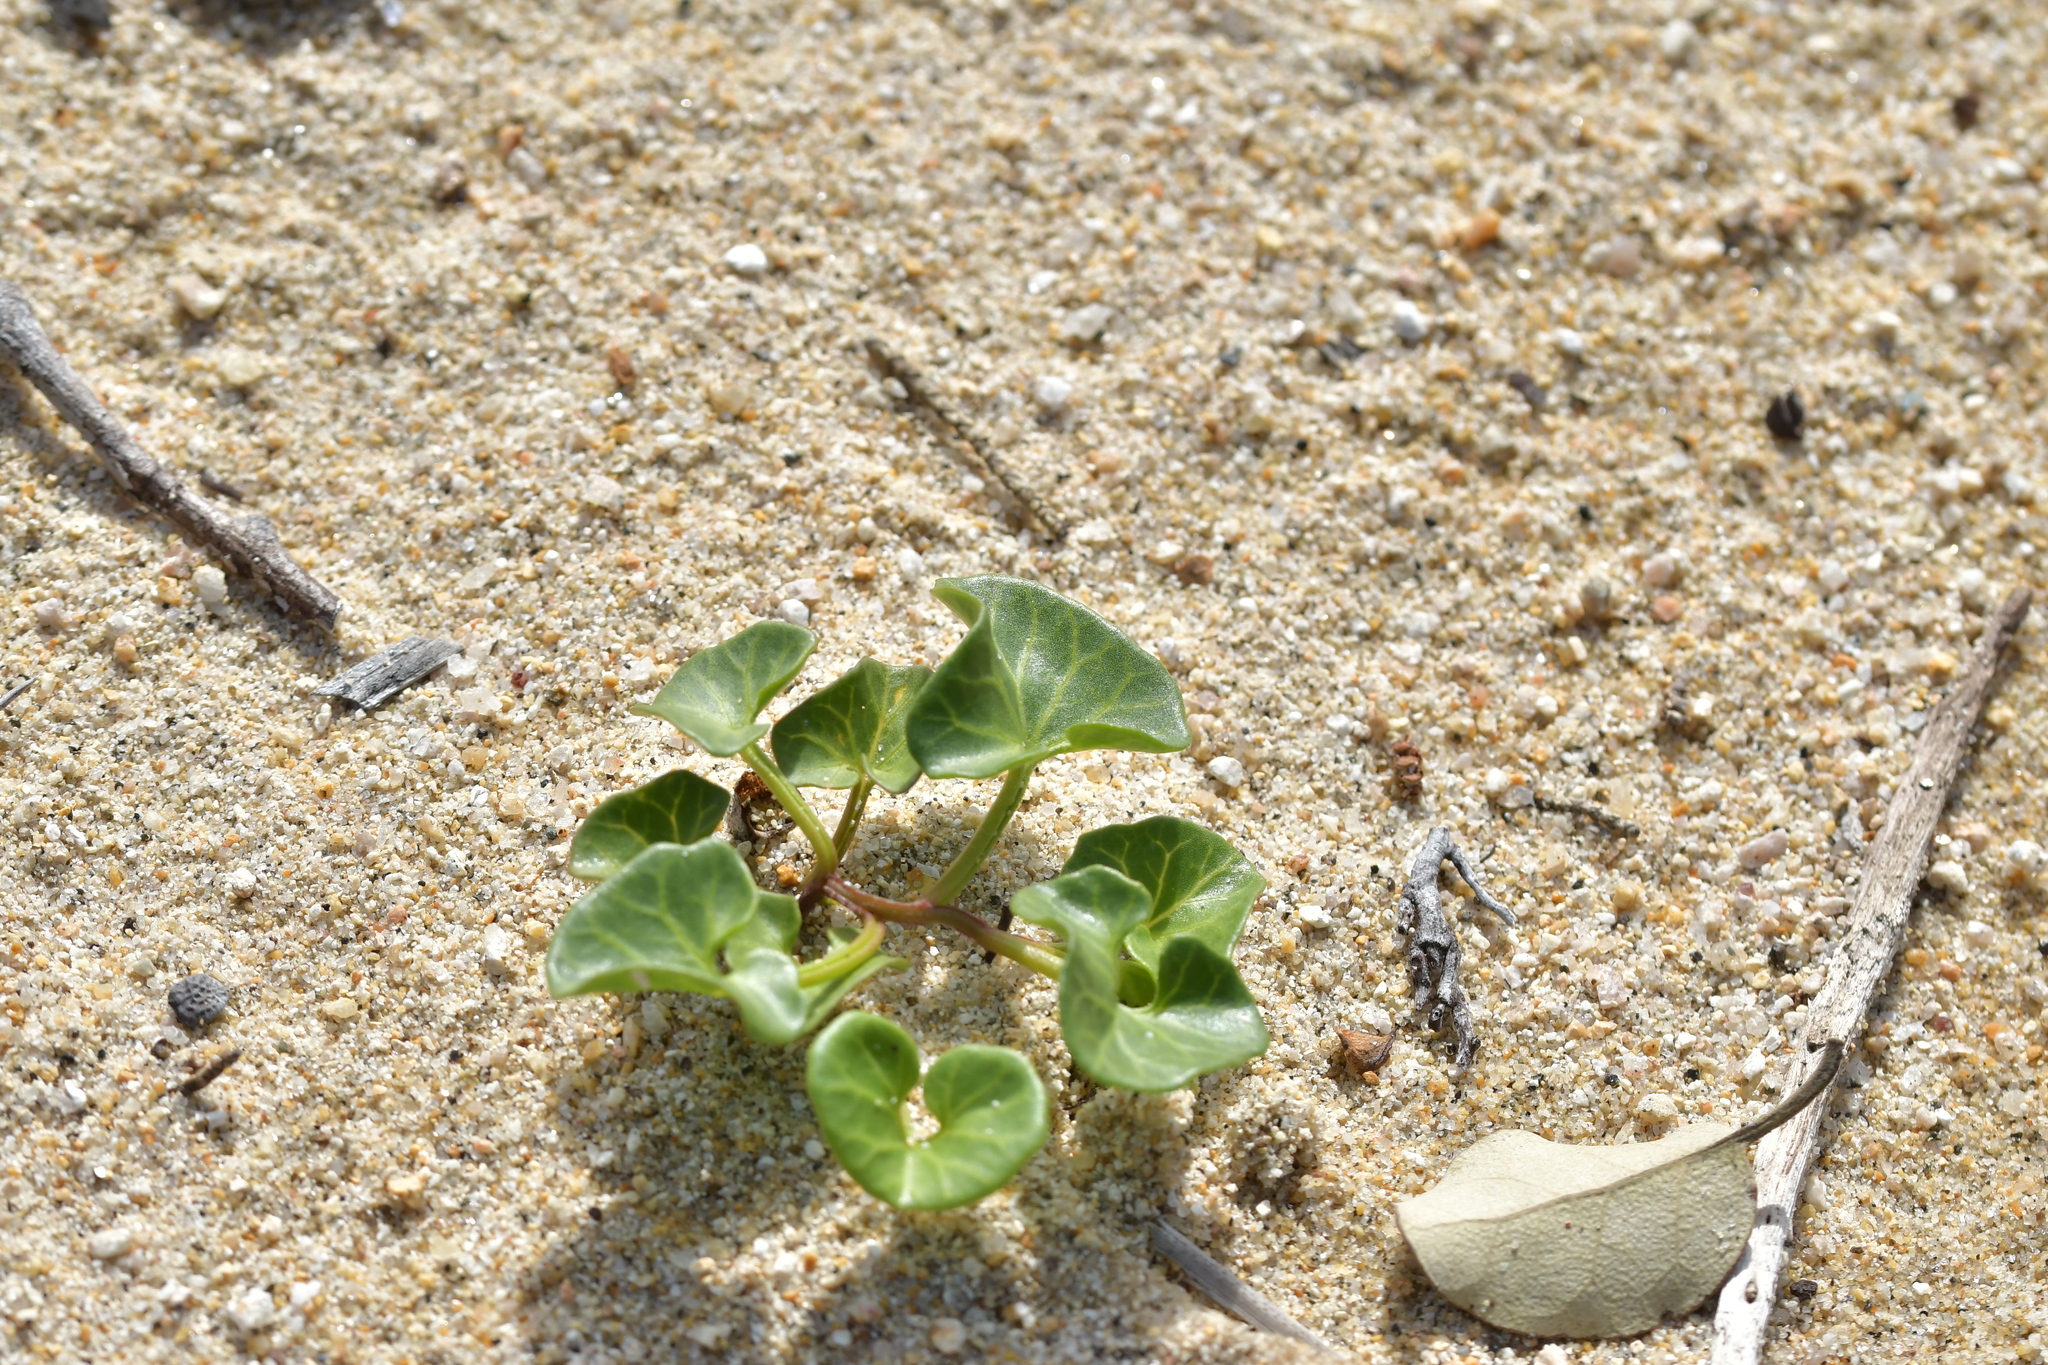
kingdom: Plantae
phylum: Tracheophyta
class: Magnoliopsida
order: Solanales
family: Convolvulaceae
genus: Calystegia
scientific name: Calystegia soldanella
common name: Sea bindweed
